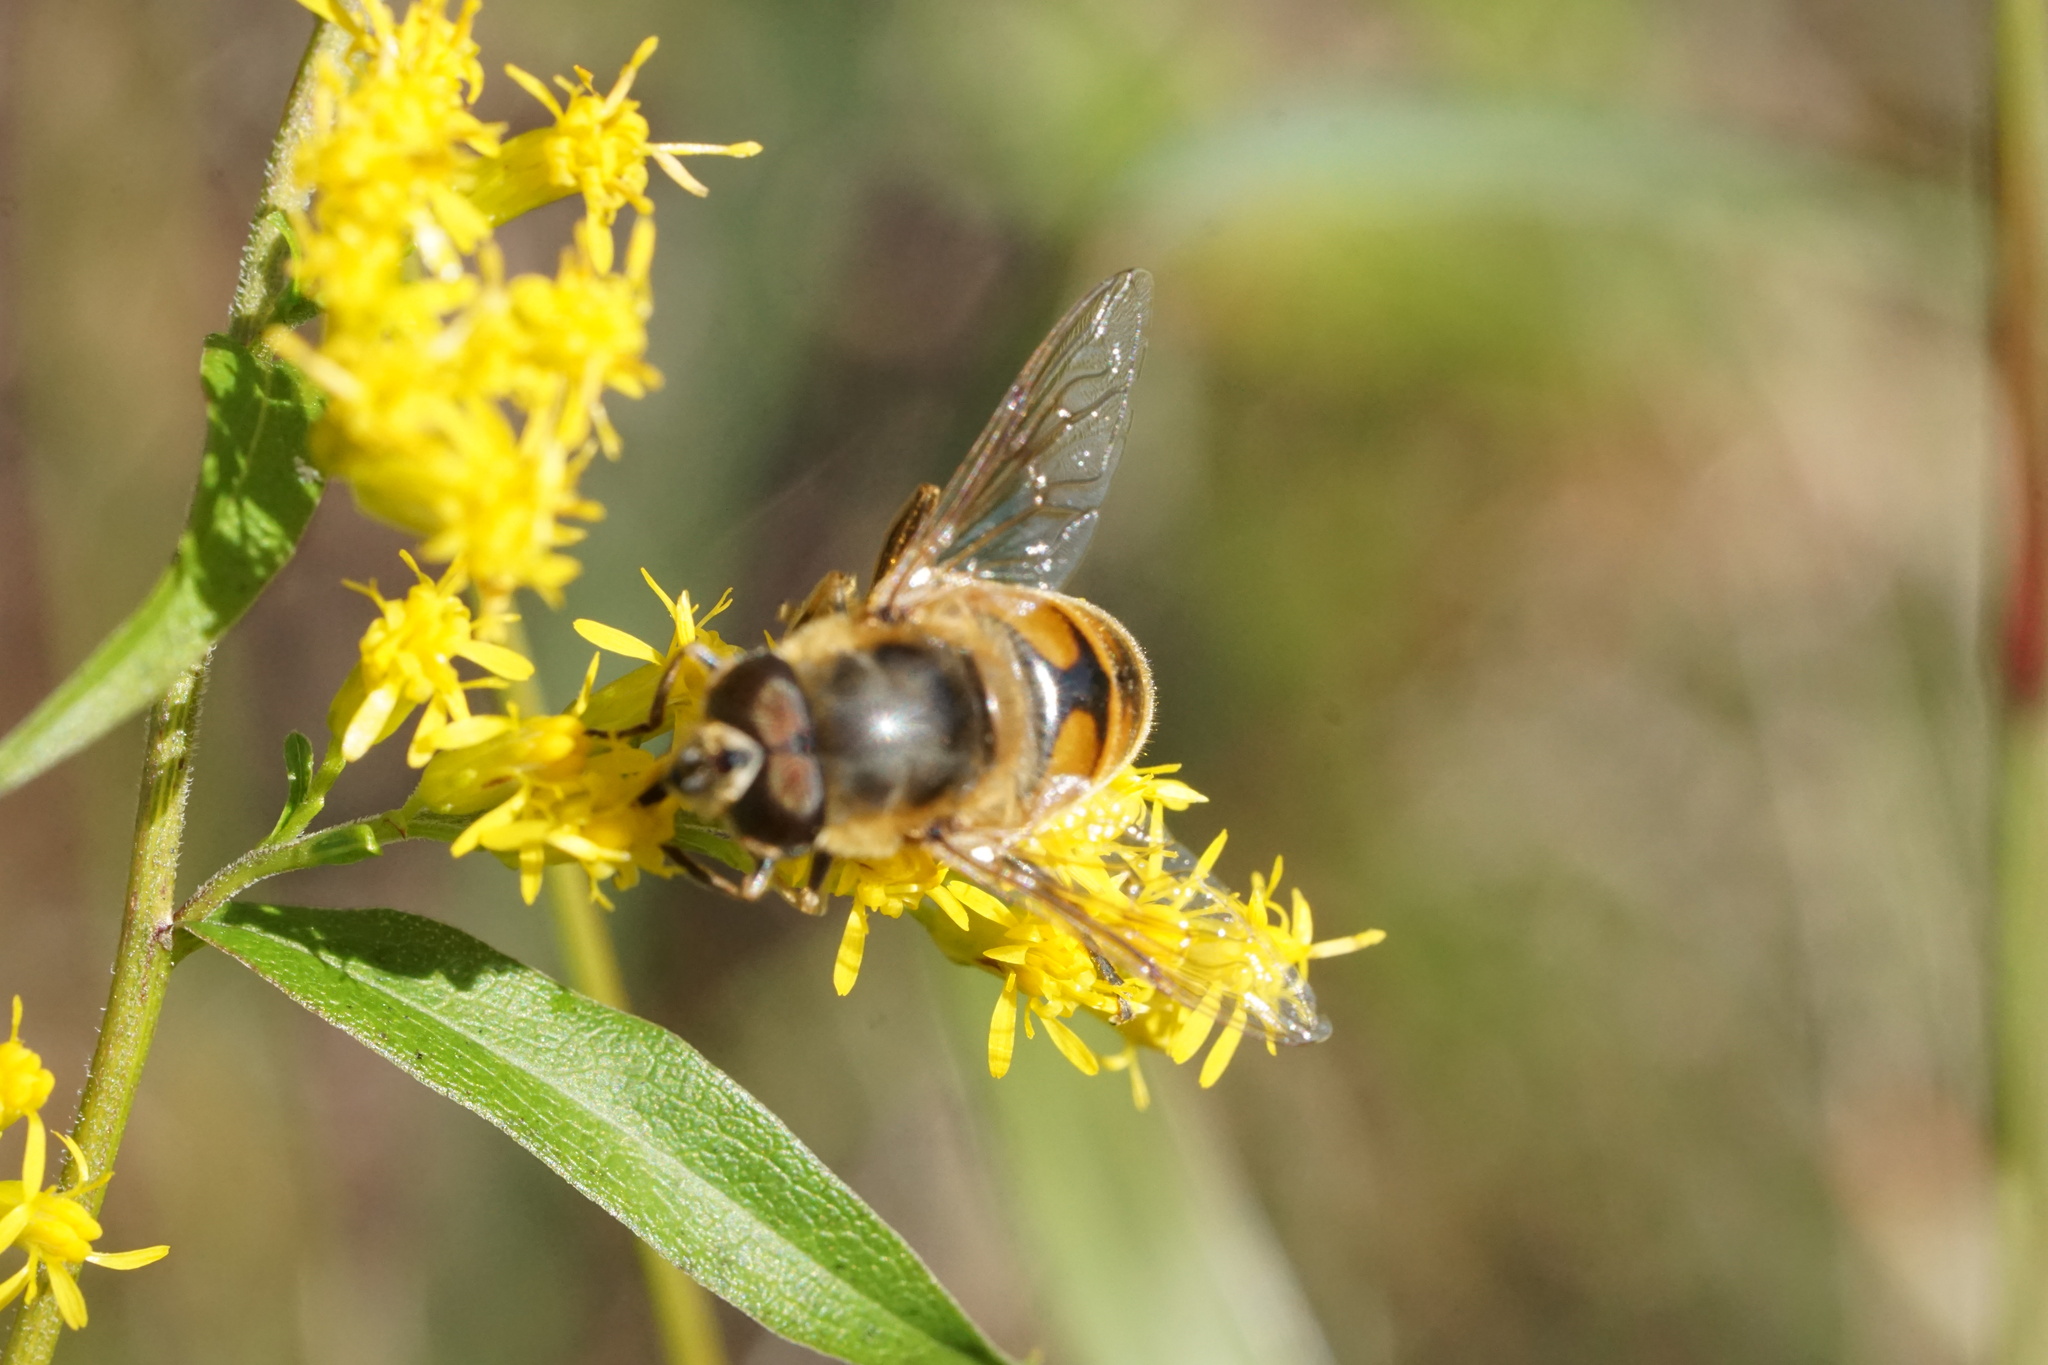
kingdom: Animalia
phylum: Arthropoda
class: Insecta
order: Diptera
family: Syrphidae
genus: Eristalis
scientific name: Eristalis tenax
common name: Drone fly
